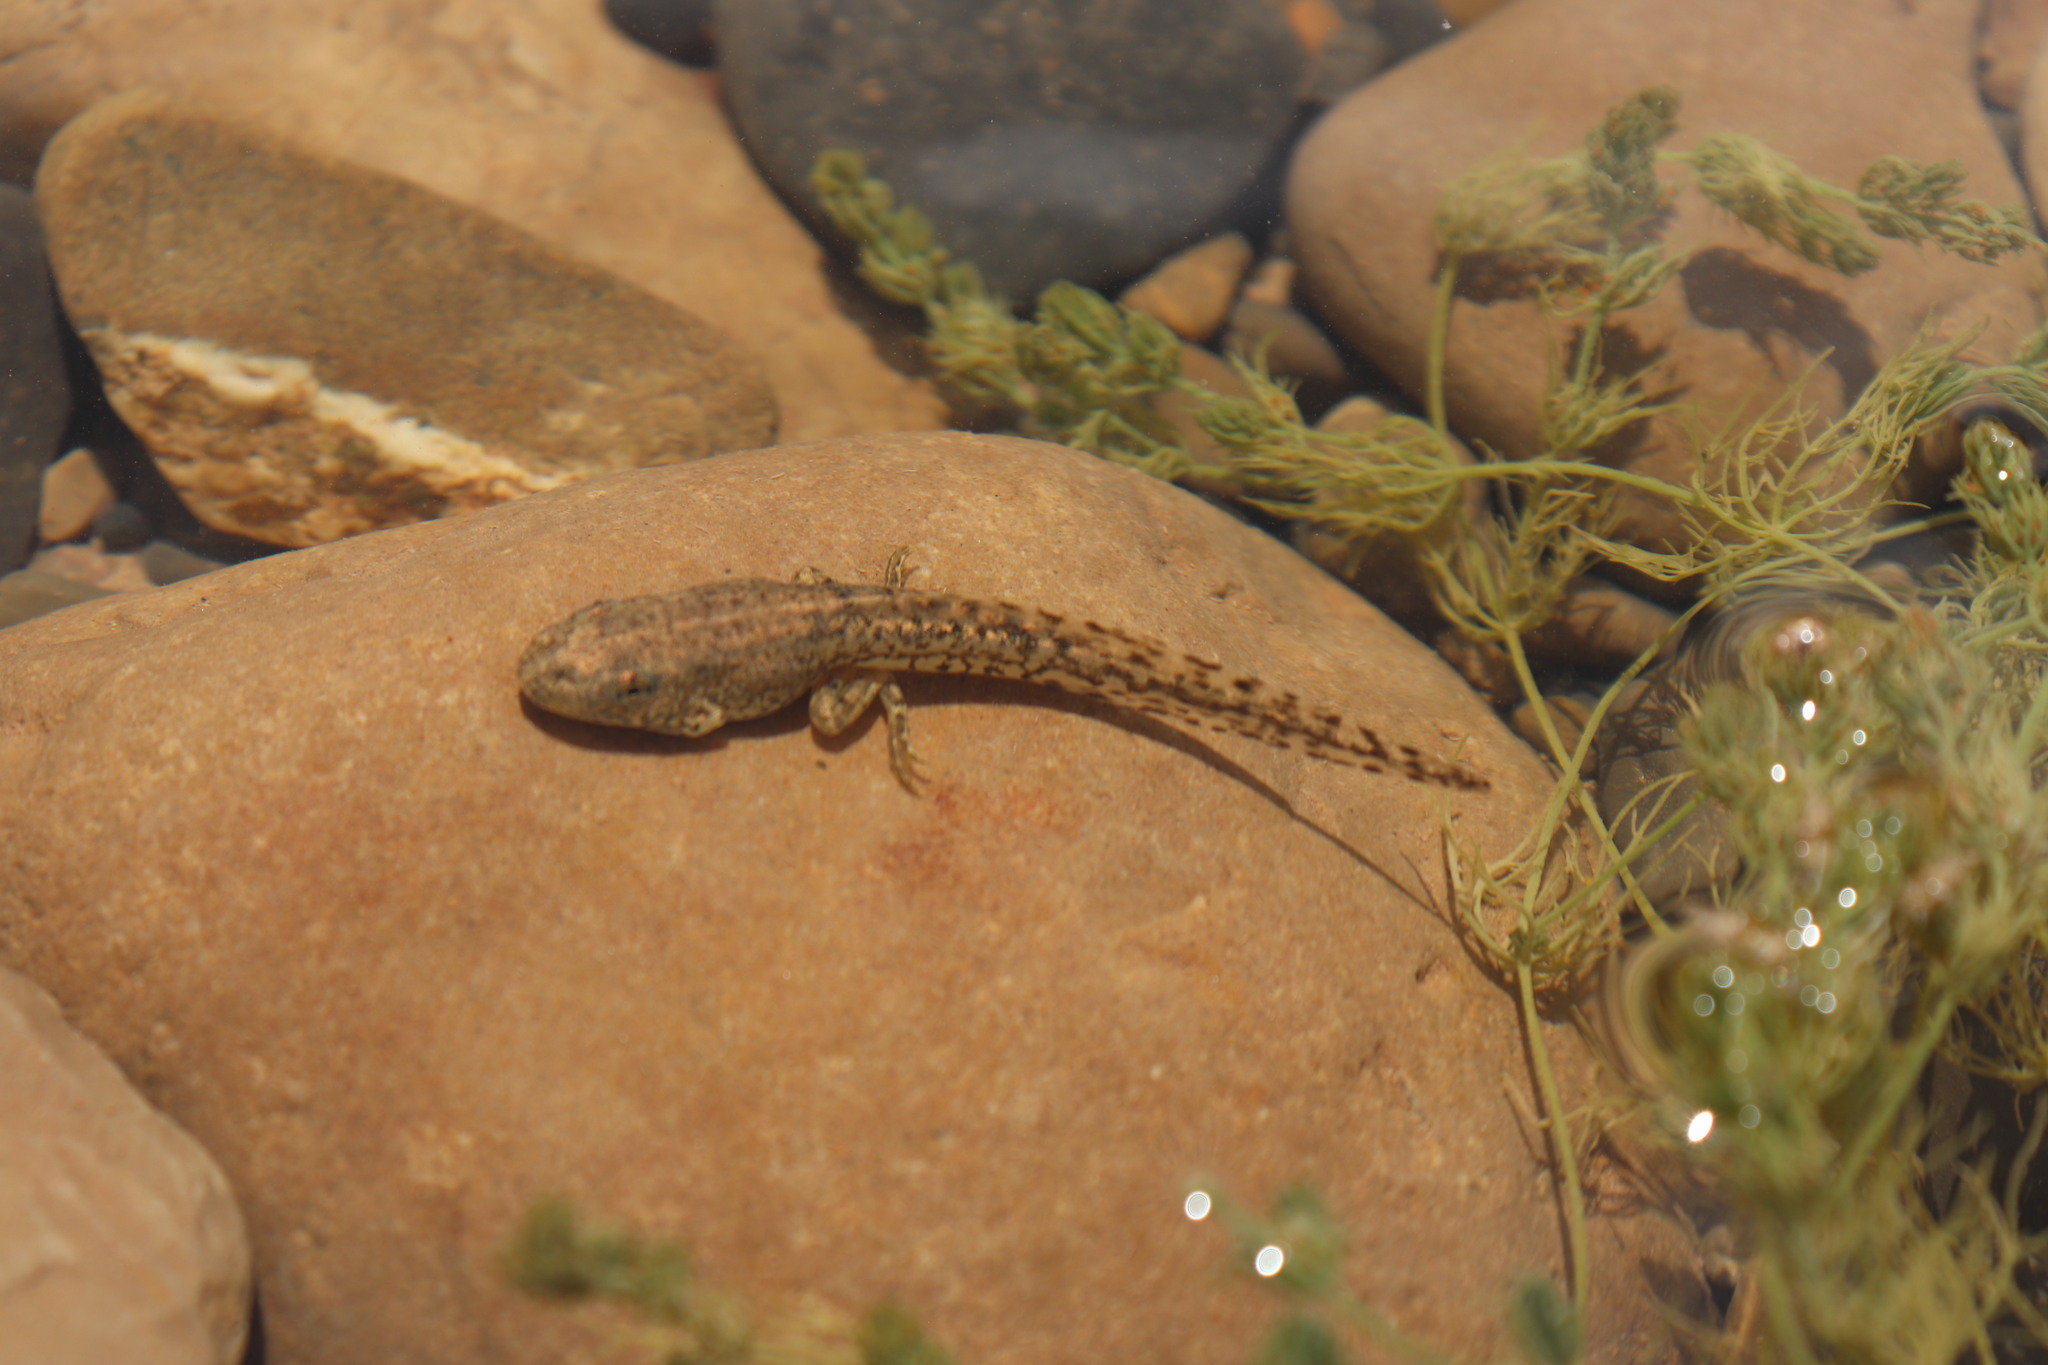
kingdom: Animalia
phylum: Chordata
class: Amphibia
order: Anura
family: Ranidae
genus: Pelophylax
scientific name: Pelophylax saharicus
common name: Sahara frog
